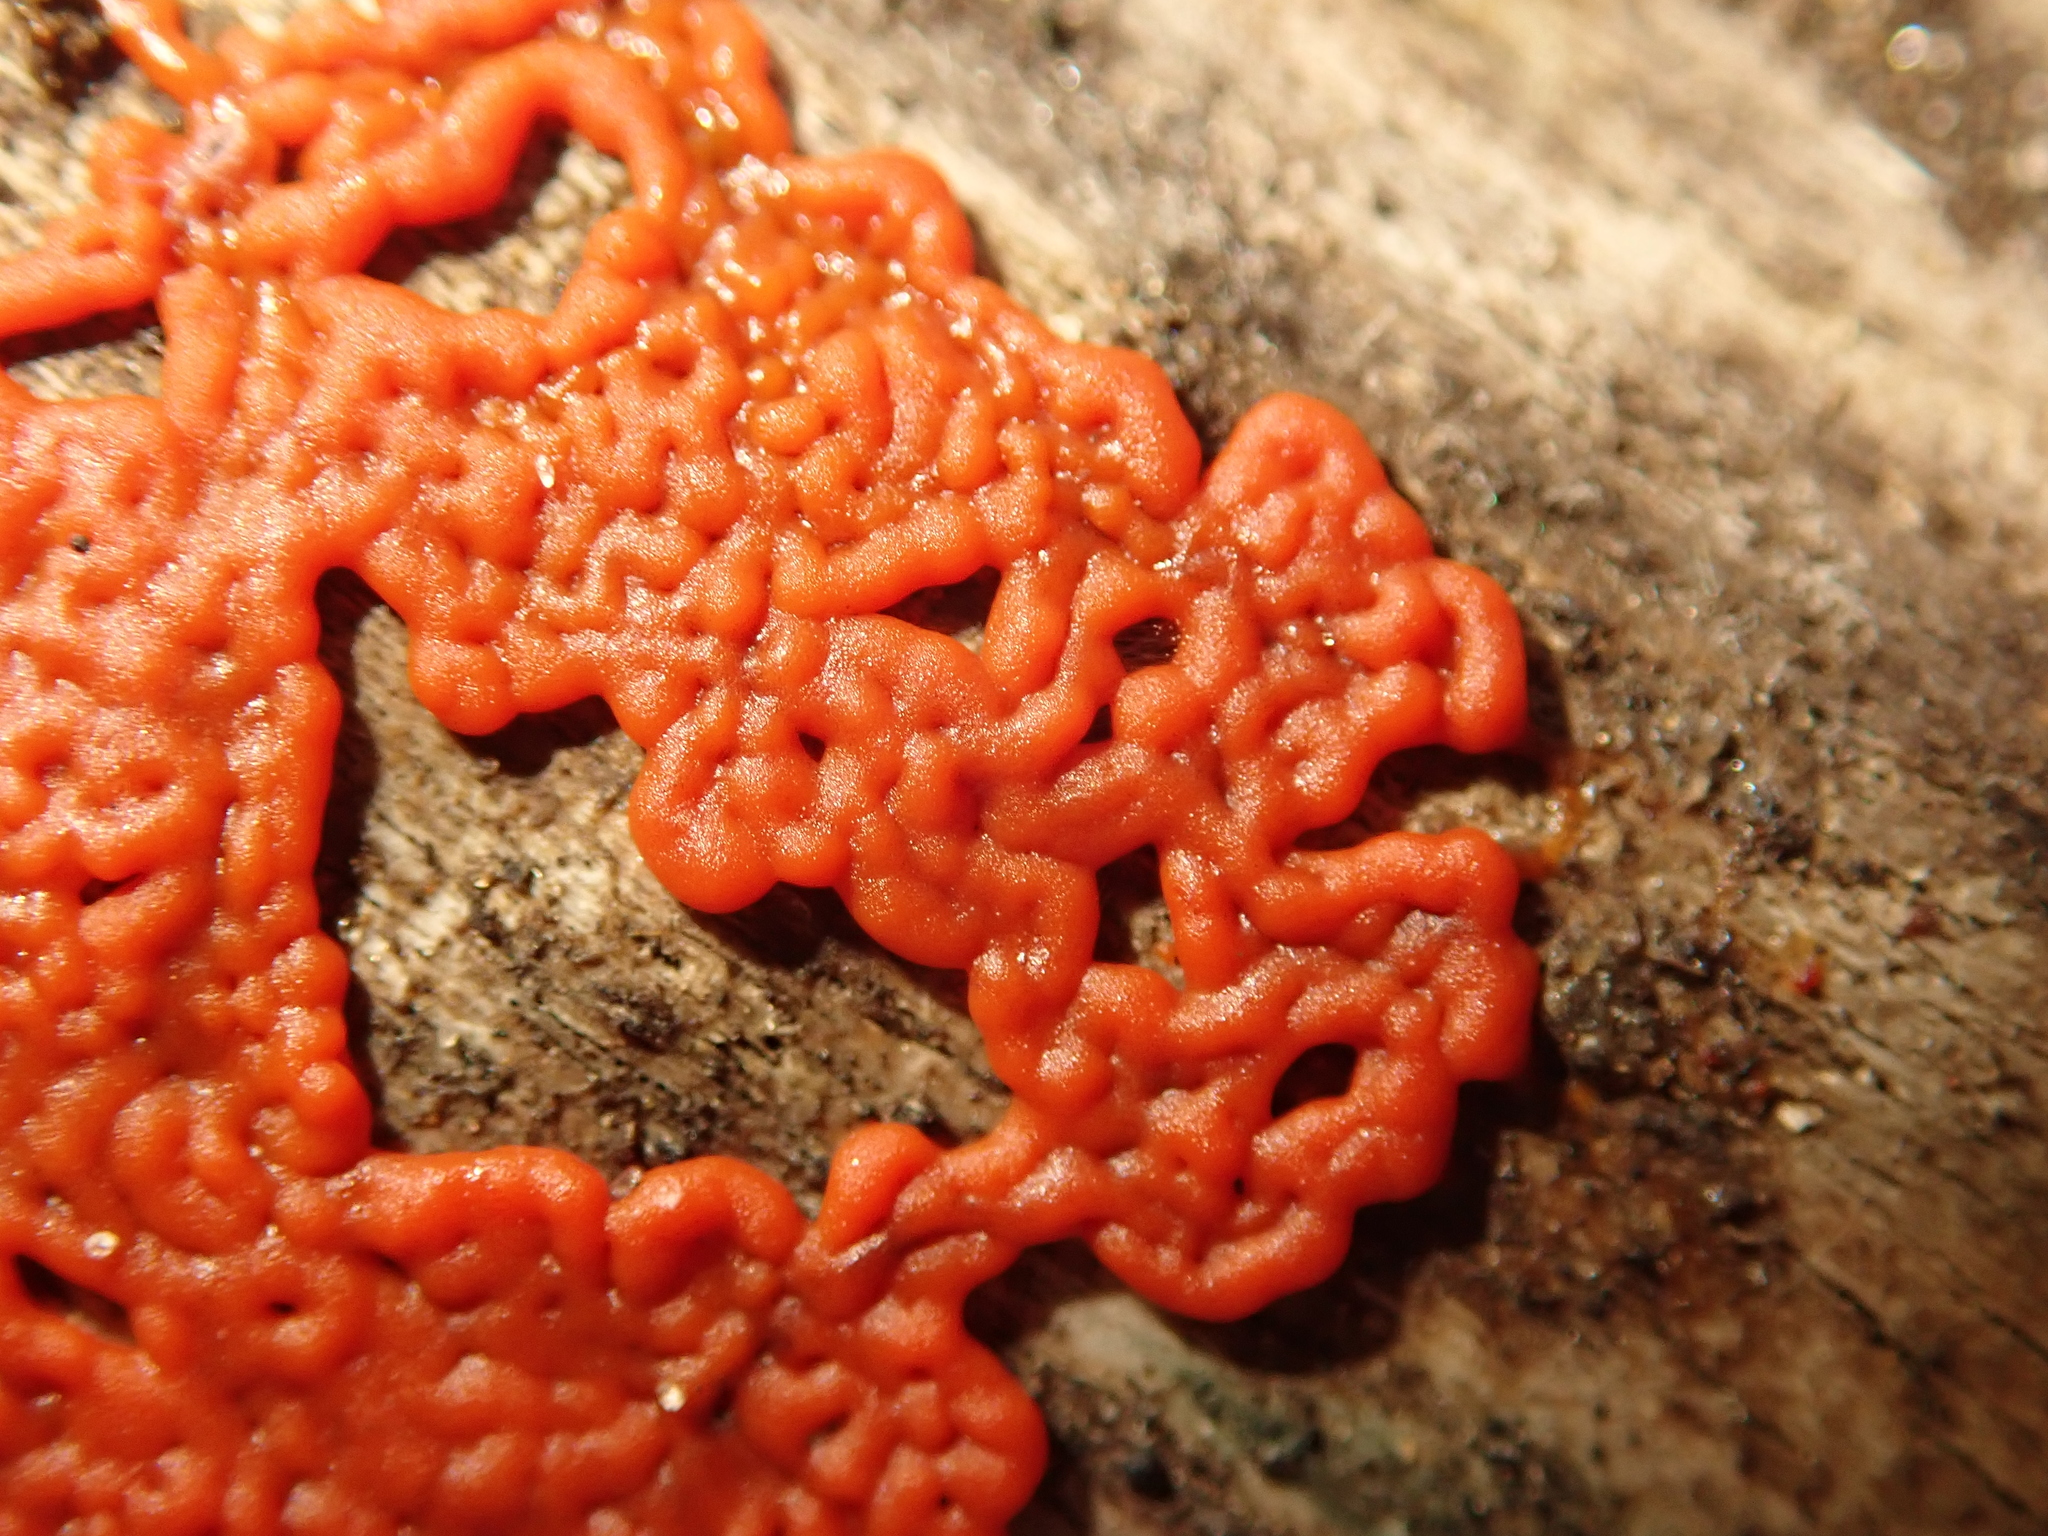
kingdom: Protozoa
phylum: Mycetozoa
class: Myxomycetes
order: Trichiales
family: Dianemataceae
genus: Dianema
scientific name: Dianema corticatum
